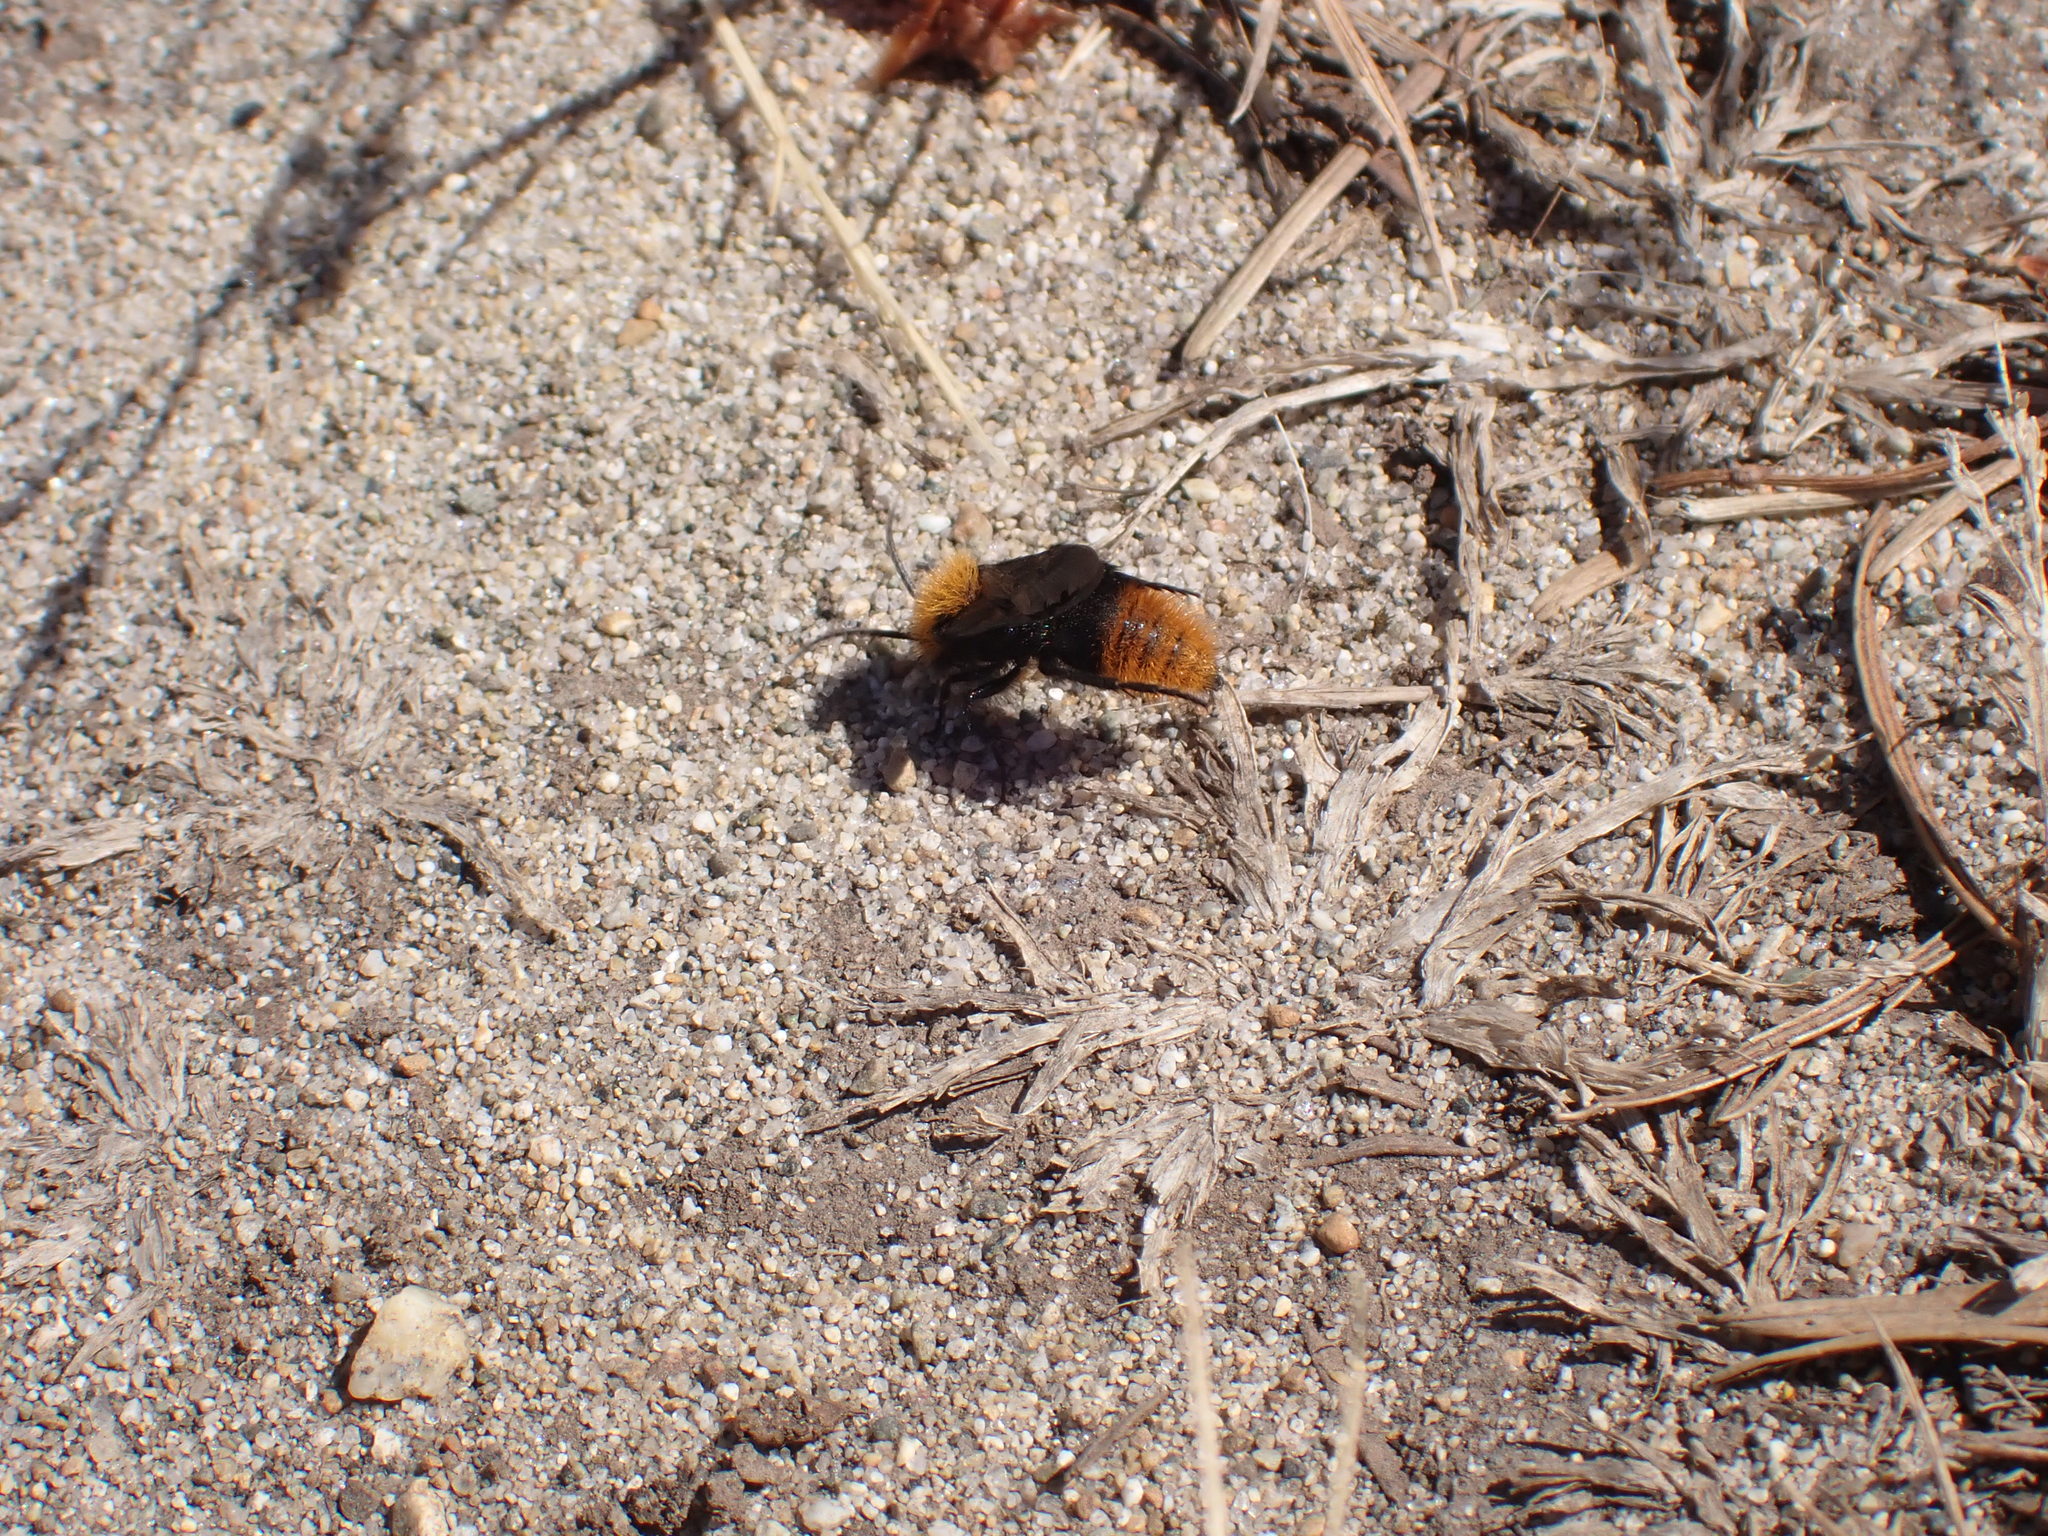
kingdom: Animalia
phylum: Arthropoda
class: Insecta
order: Hymenoptera
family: Mutillidae
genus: Dasymutilla
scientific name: Dasymutilla
